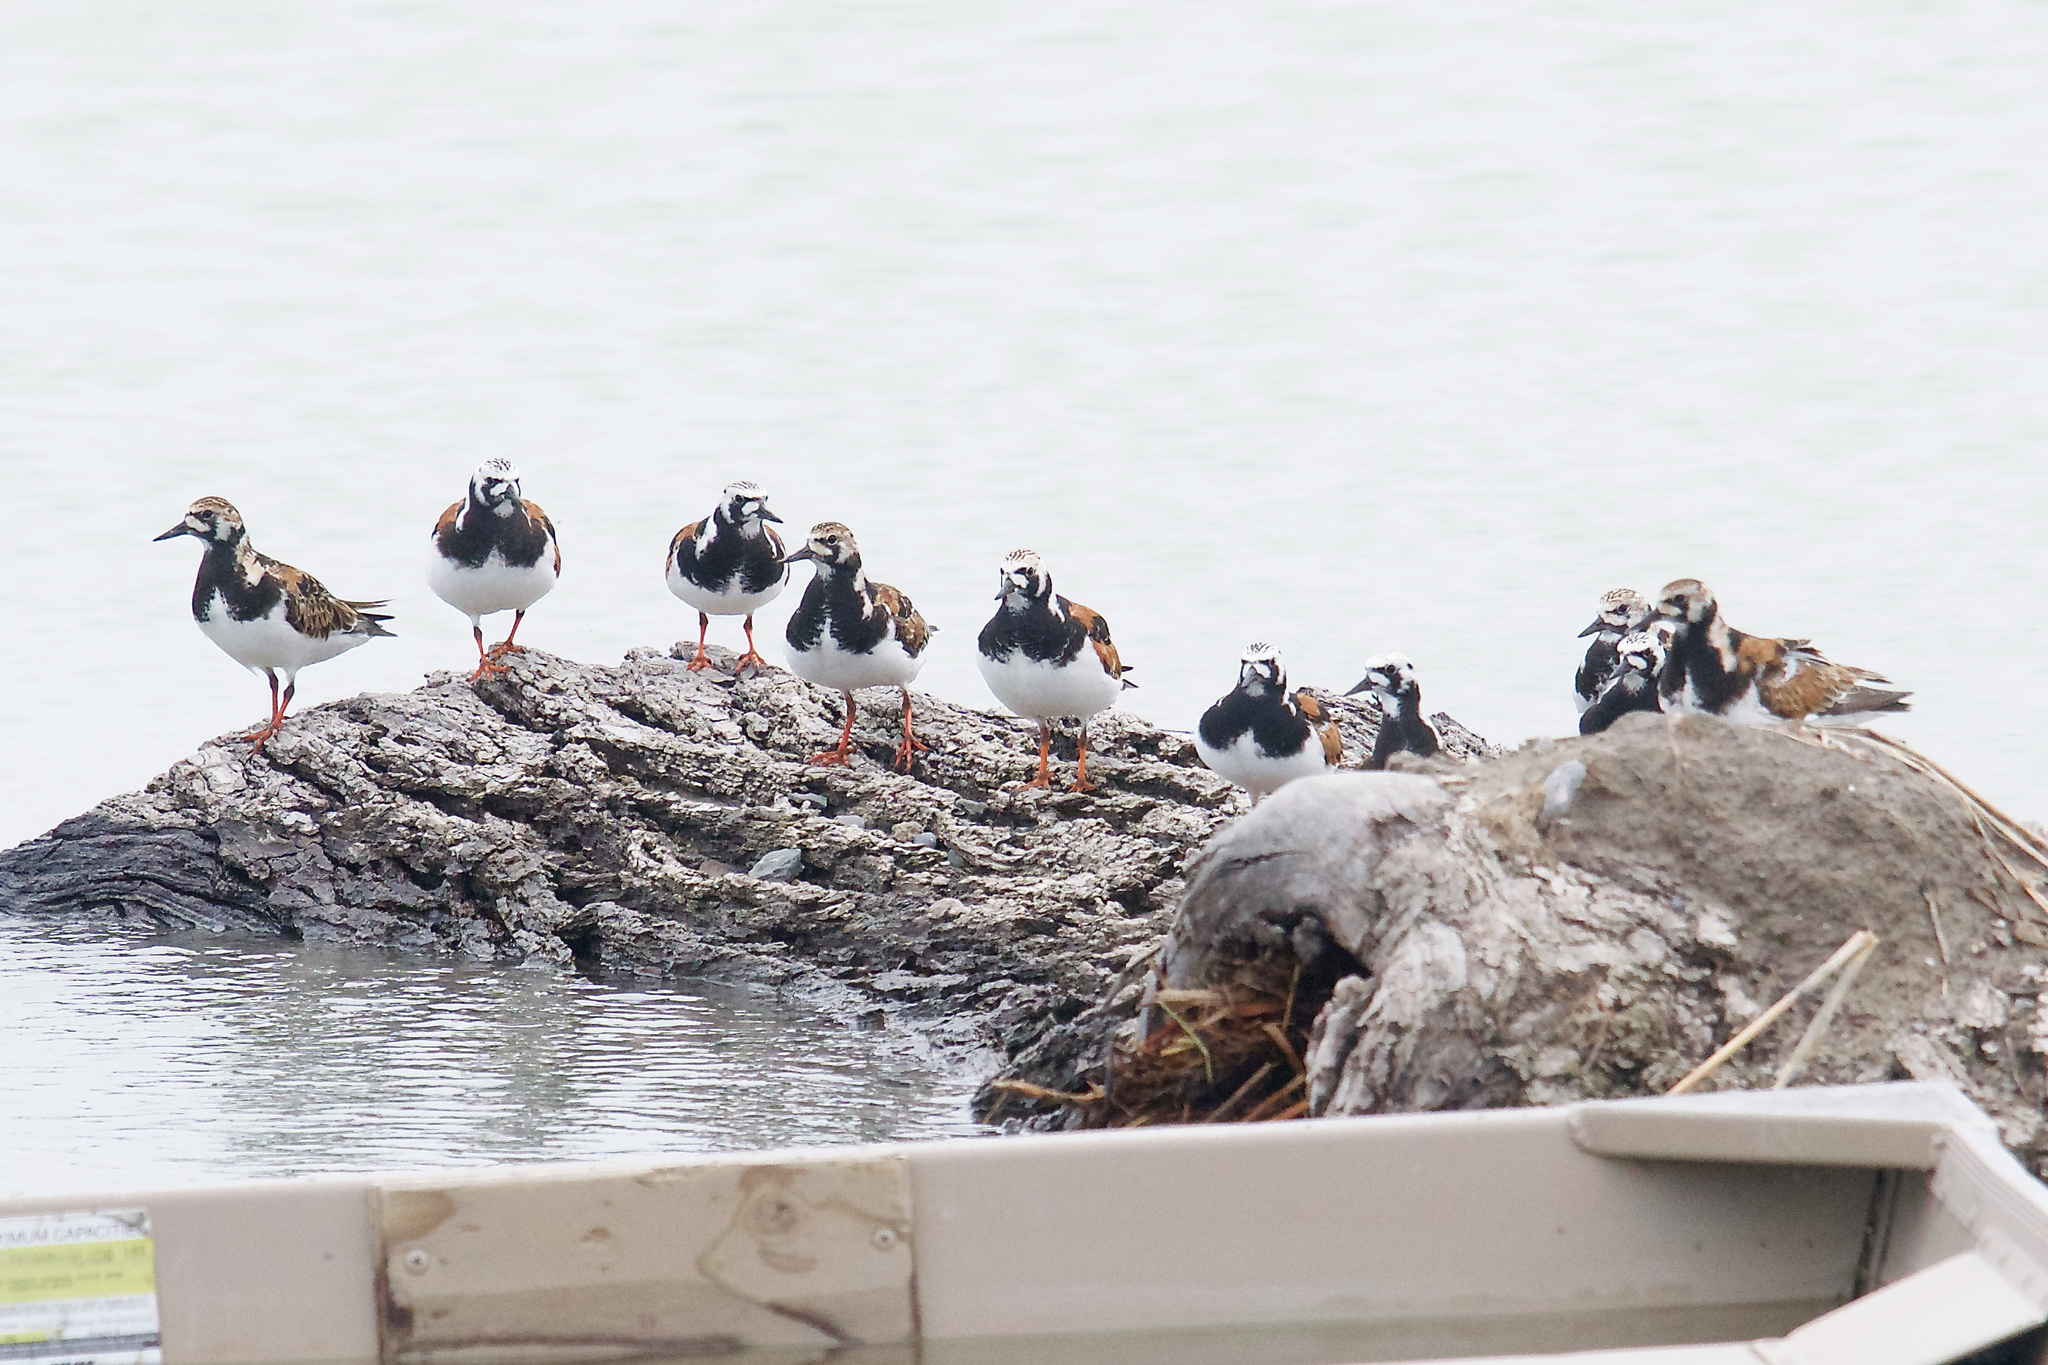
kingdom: Animalia
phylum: Chordata
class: Aves
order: Charadriiformes
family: Scolopacidae
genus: Arenaria
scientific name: Arenaria interpres
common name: Ruddy turnstone
